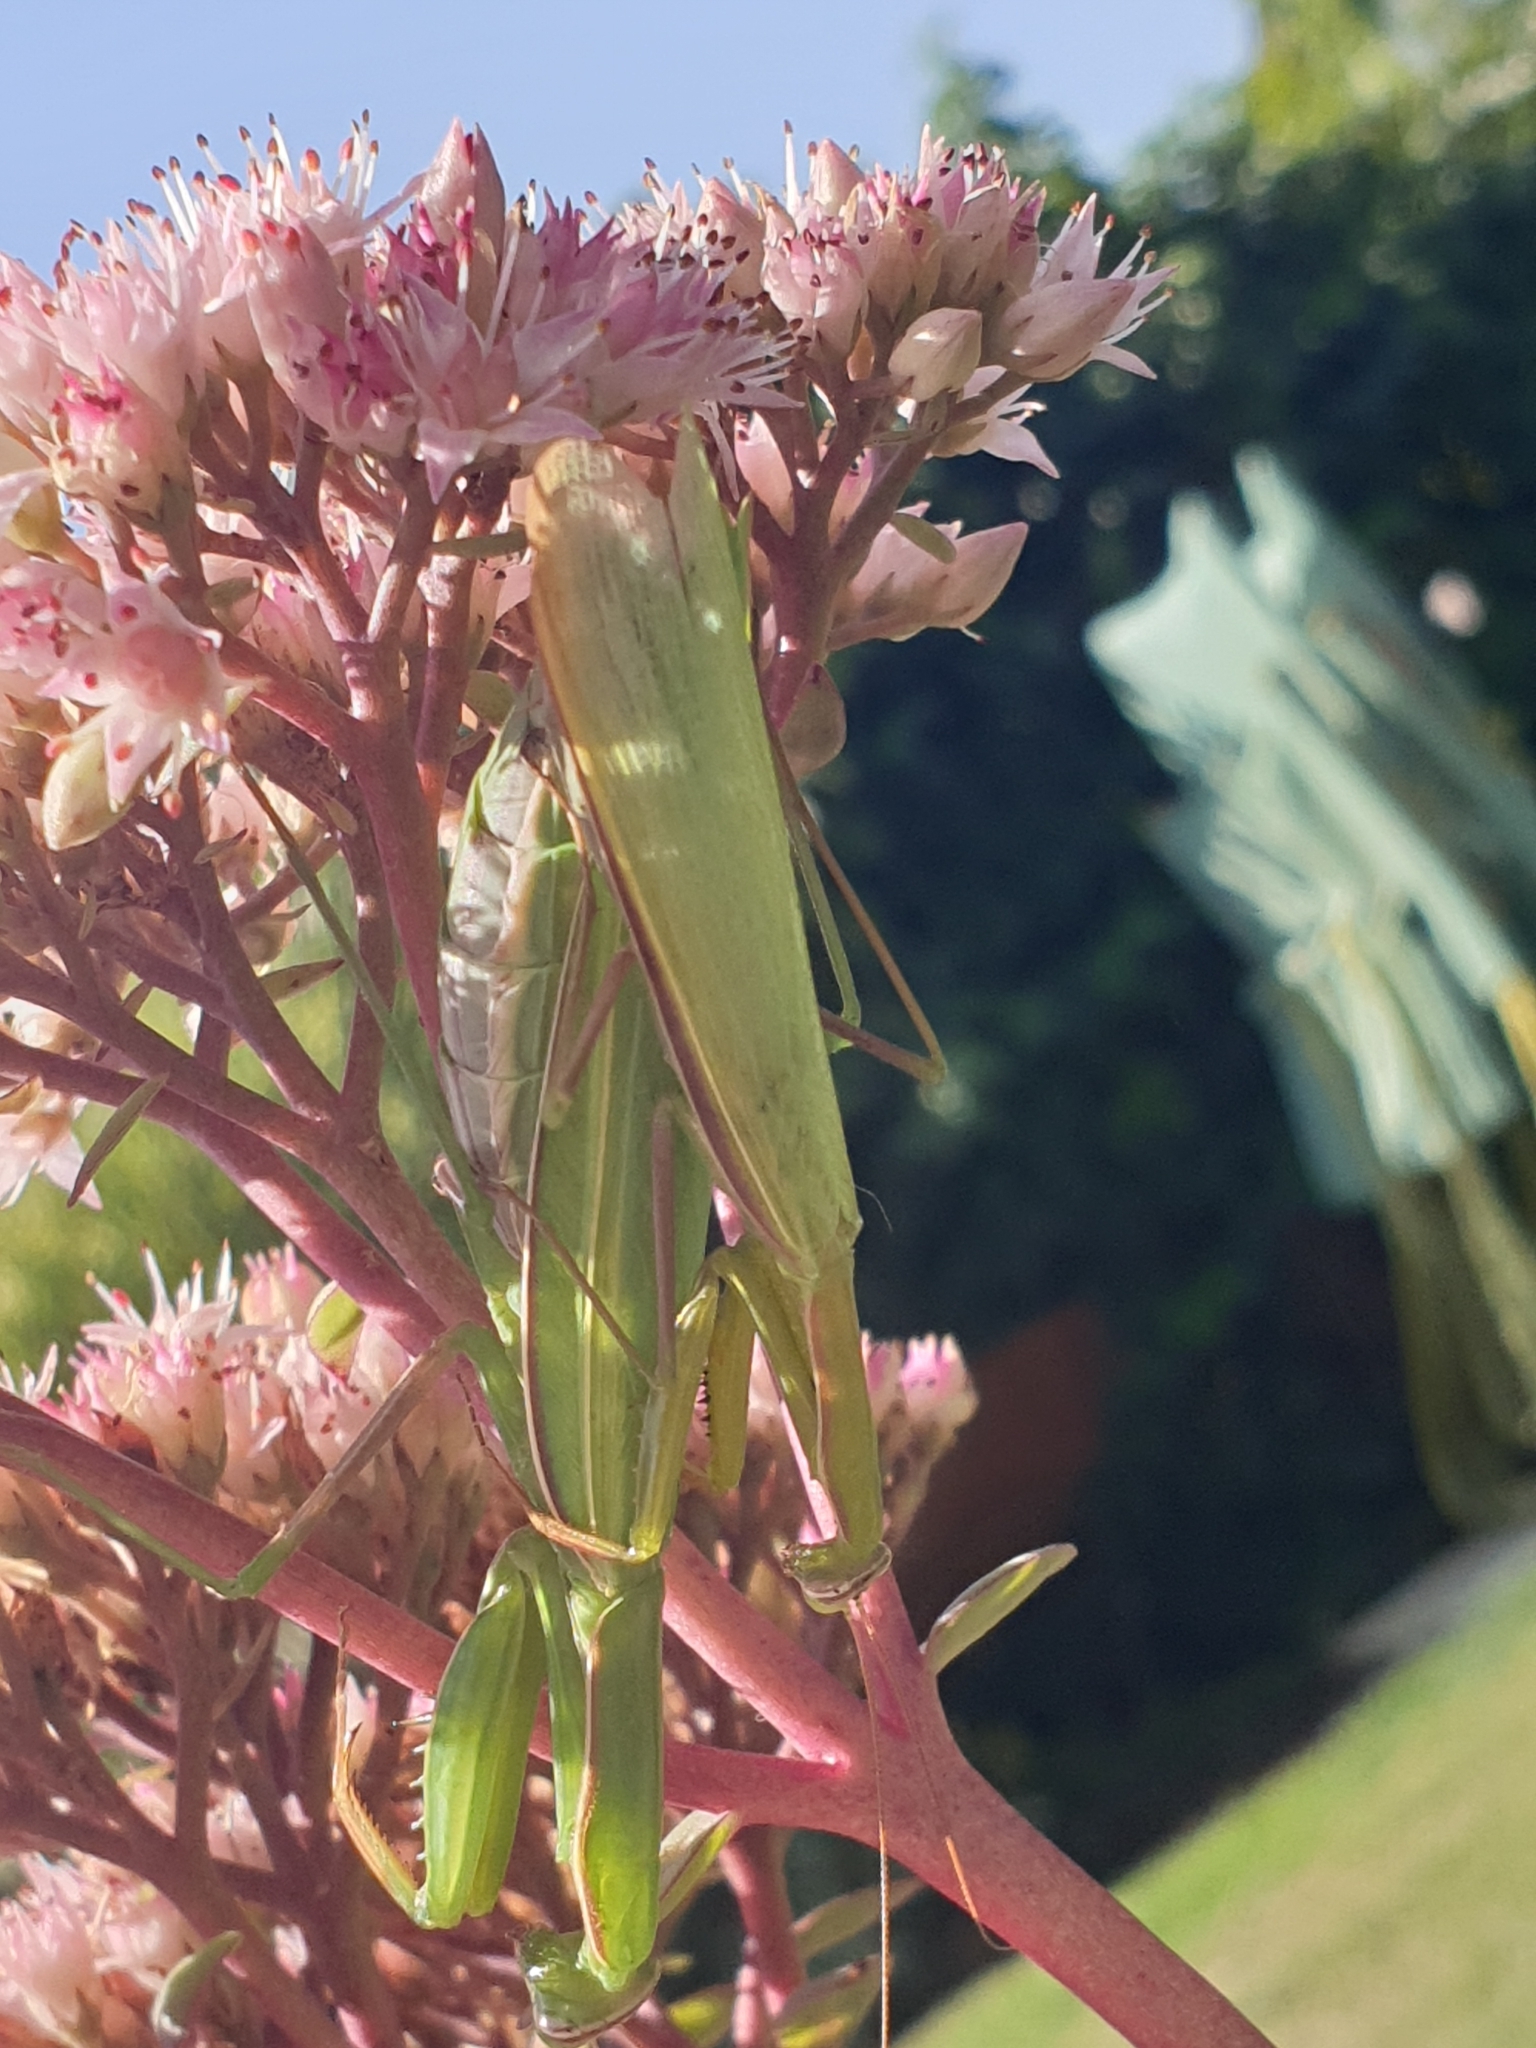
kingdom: Animalia
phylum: Arthropoda
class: Insecta
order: Mantodea
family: Mantidae
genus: Mantis
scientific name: Mantis religiosa
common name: Praying mantis
